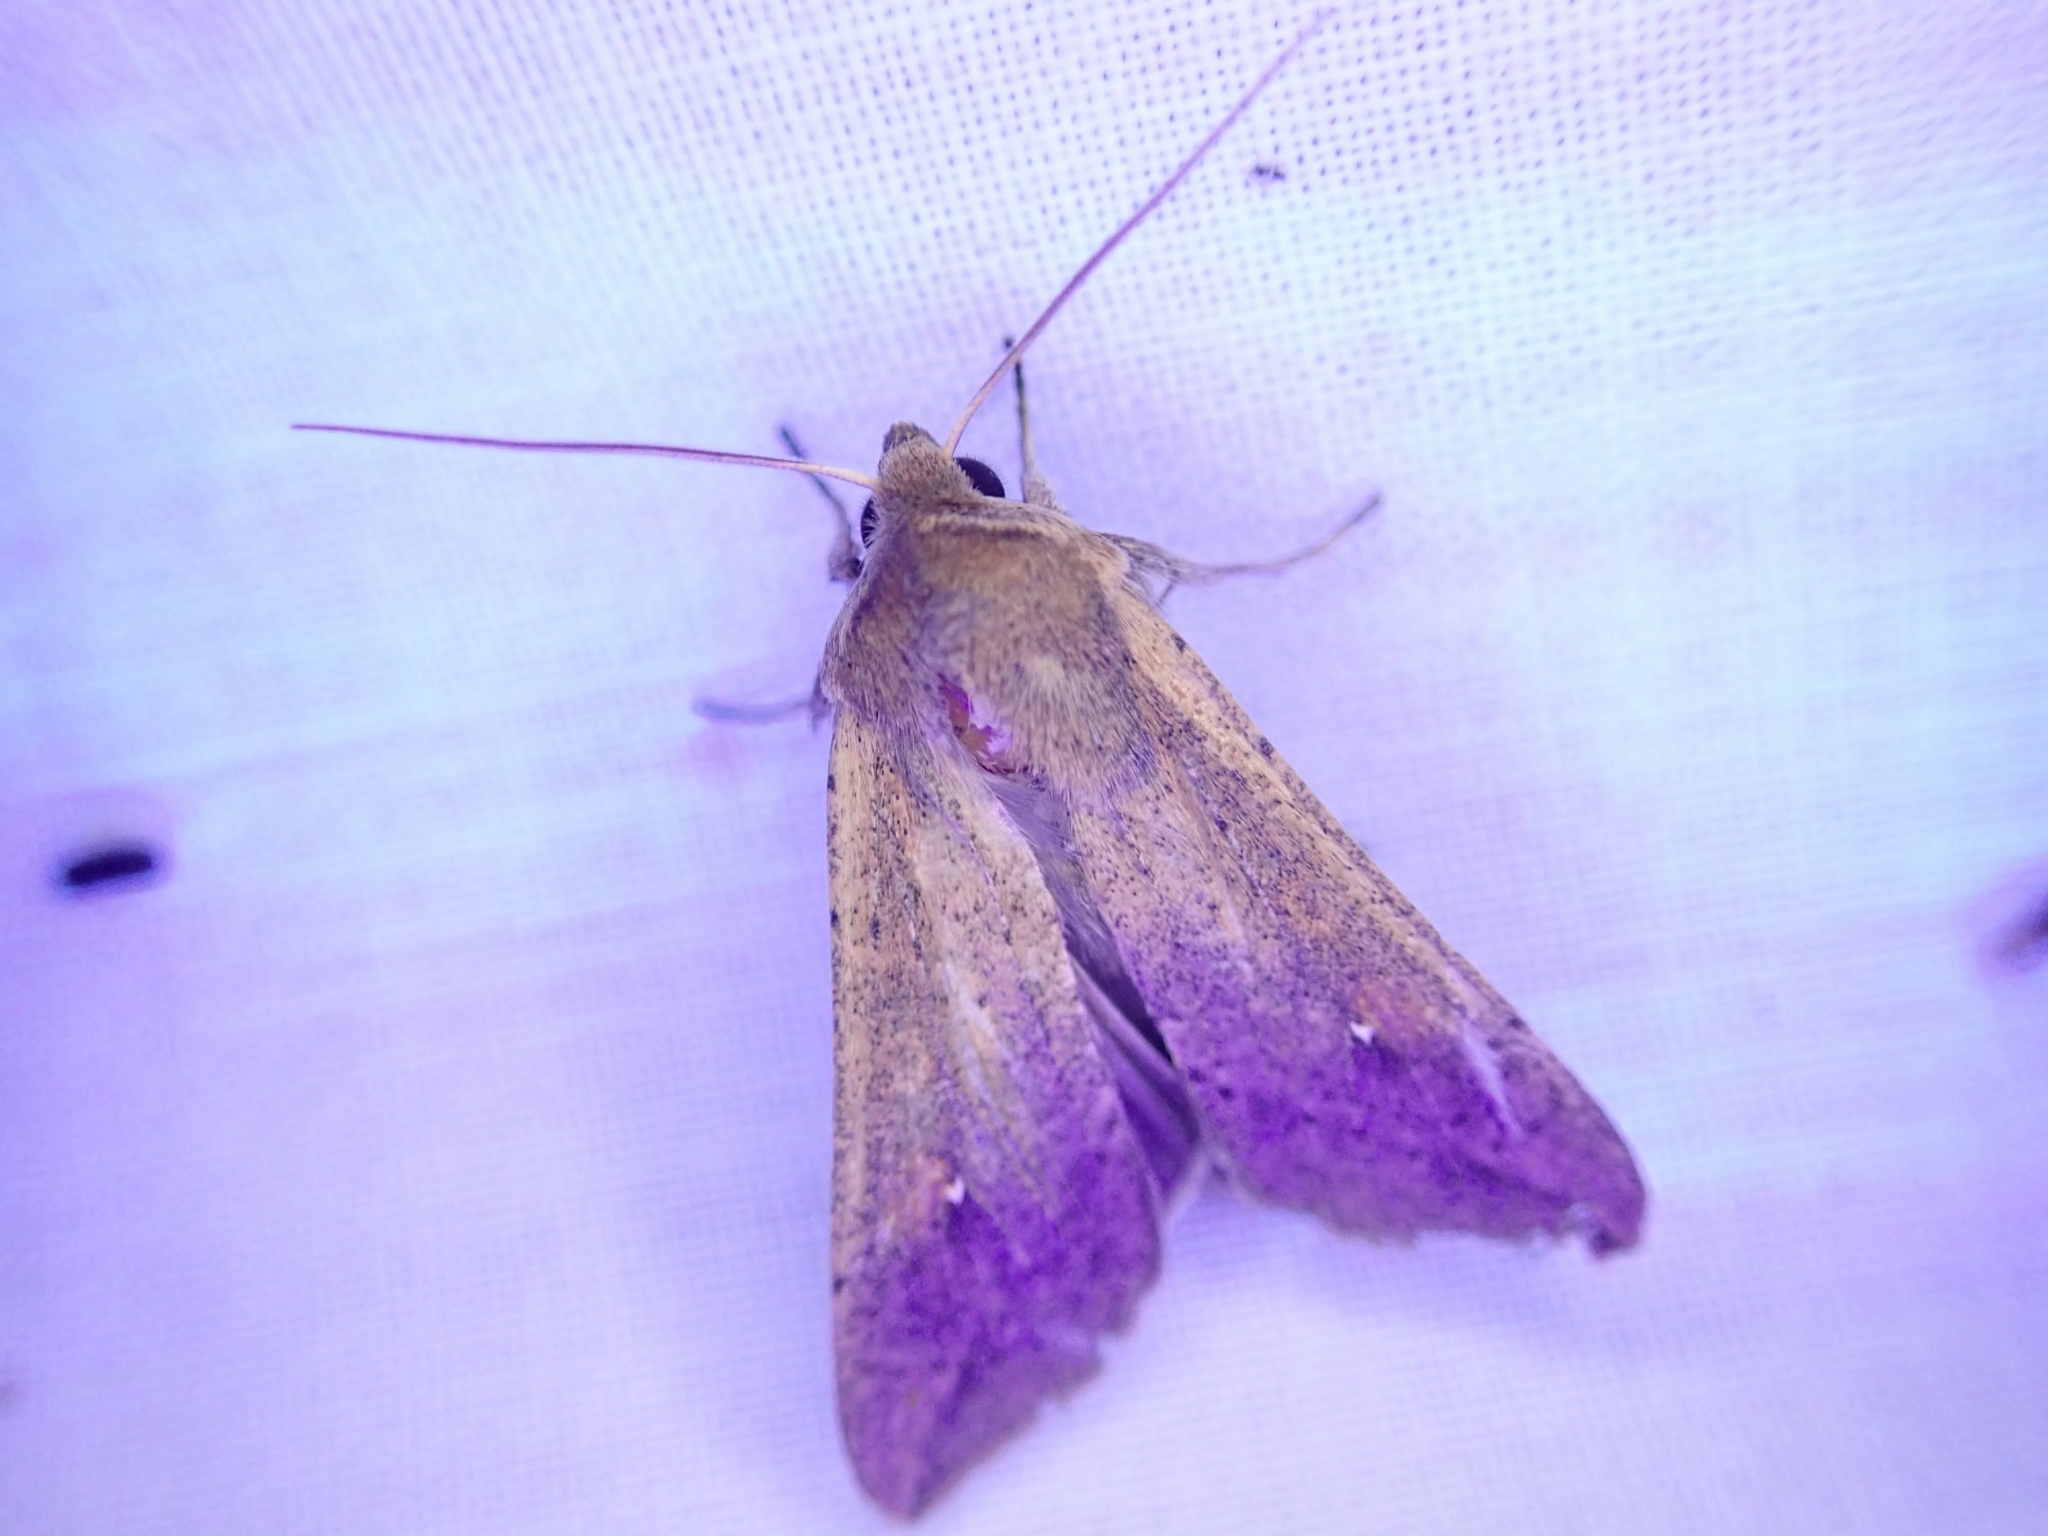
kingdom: Animalia
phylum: Arthropoda
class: Insecta
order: Lepidoptera
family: Noctuidae
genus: Mythimna
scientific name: Mythimna unipuncta
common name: White-speck
